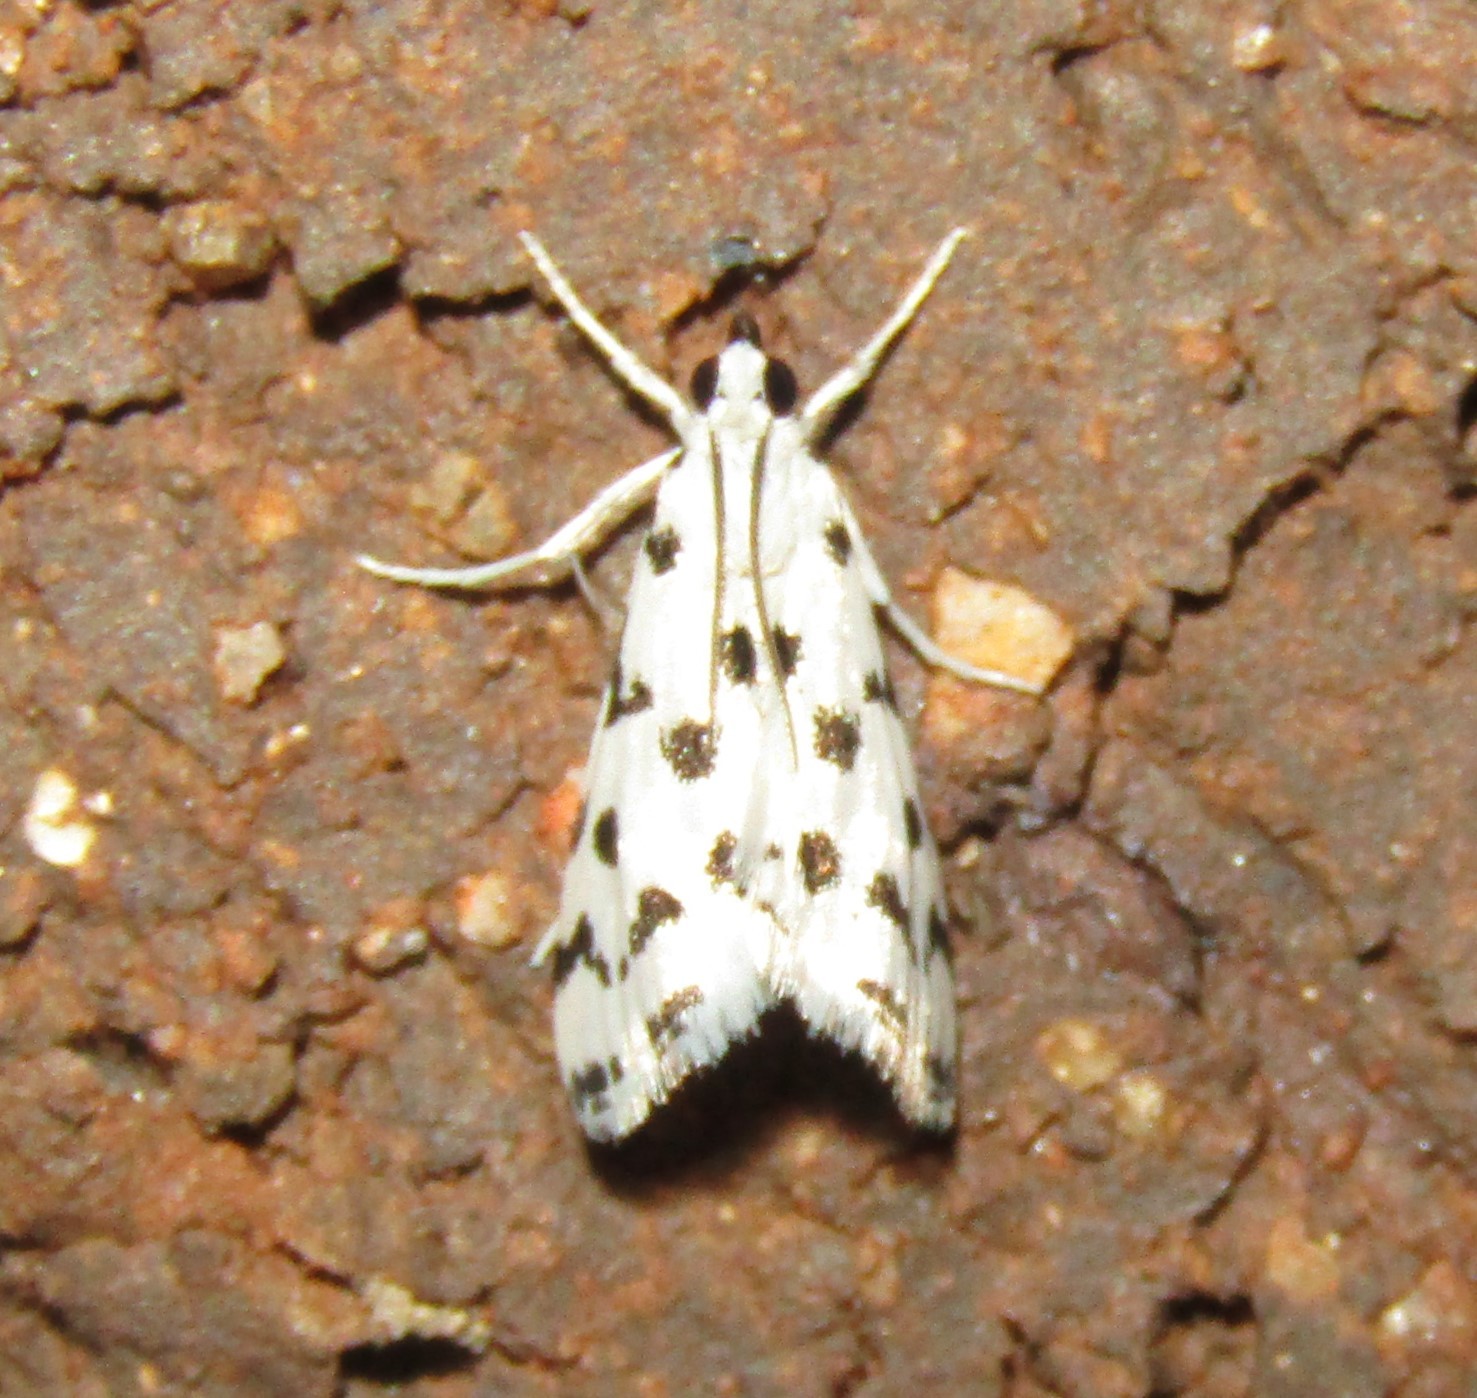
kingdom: Animalia
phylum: Arthropoda
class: Insecta
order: Lepidoptera
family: Crambidae
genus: Eustixia
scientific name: Eustixia pupula
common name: American cabbage pearl
